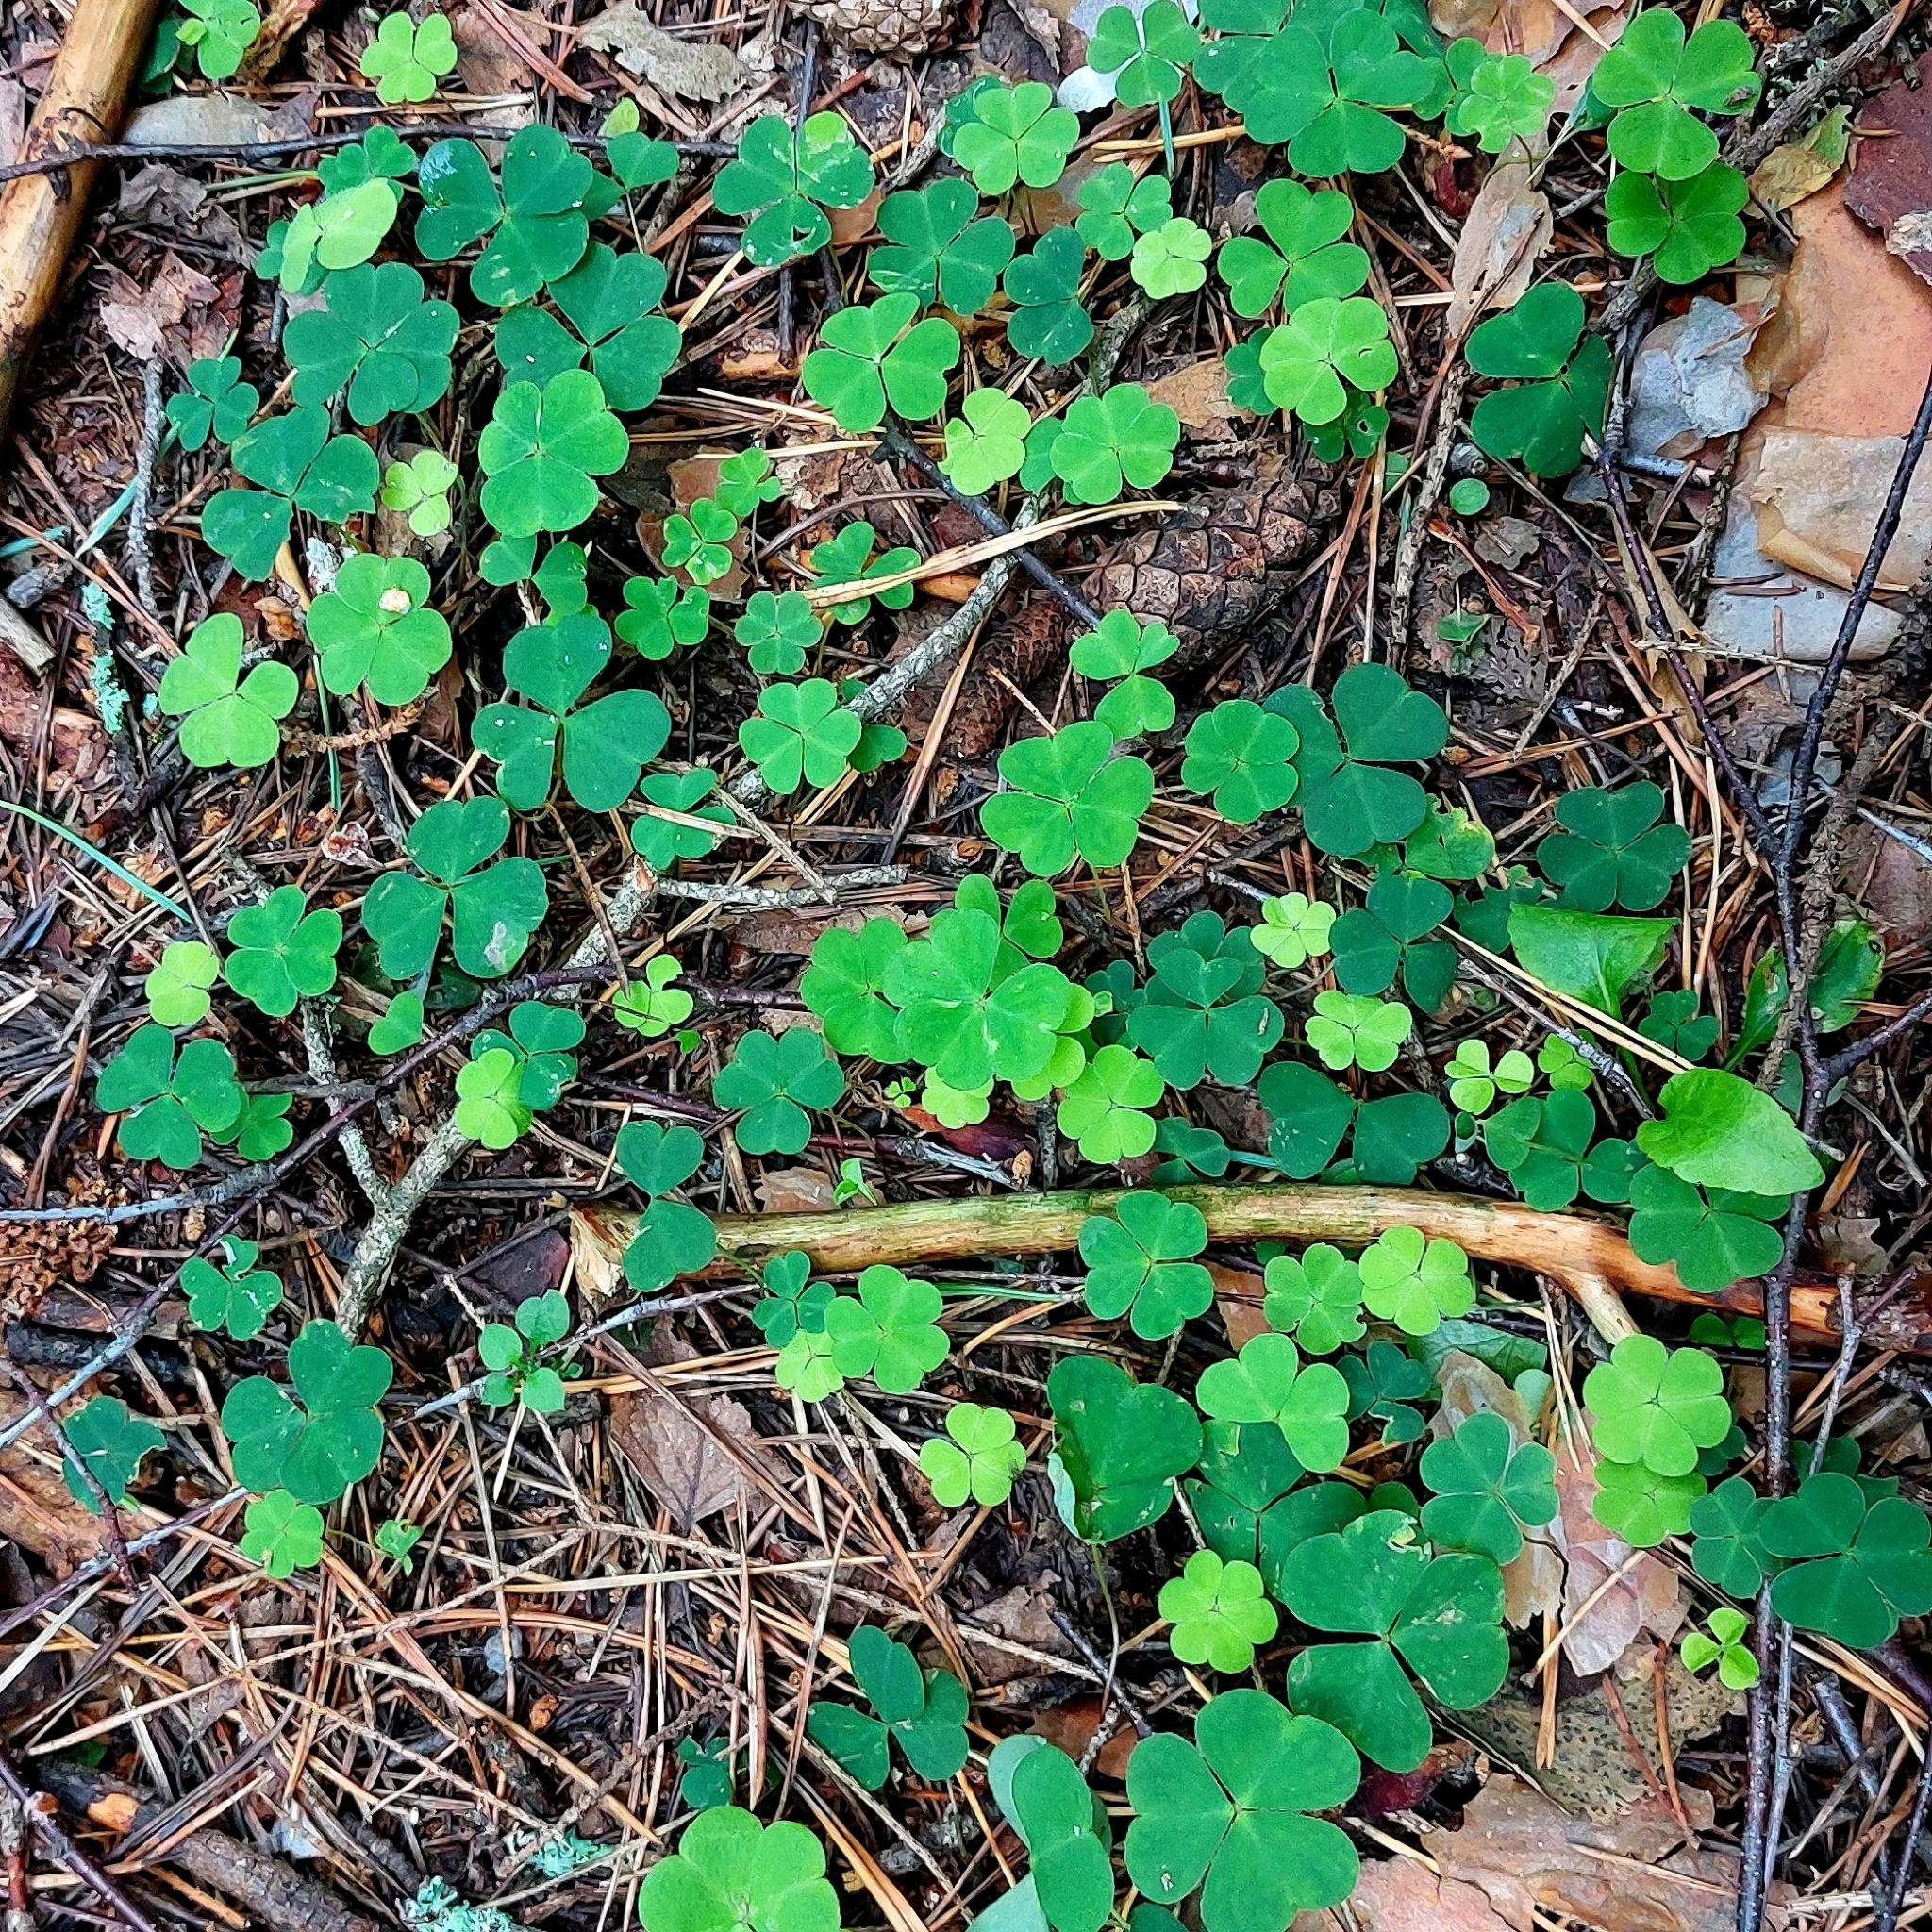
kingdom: Plantae
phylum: Tracheophyta
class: Magnoliopsida
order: Oxalidales
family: Oxalidaceae
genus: Oxalis
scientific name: Oxalis acetosella
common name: Wood-sorrel
